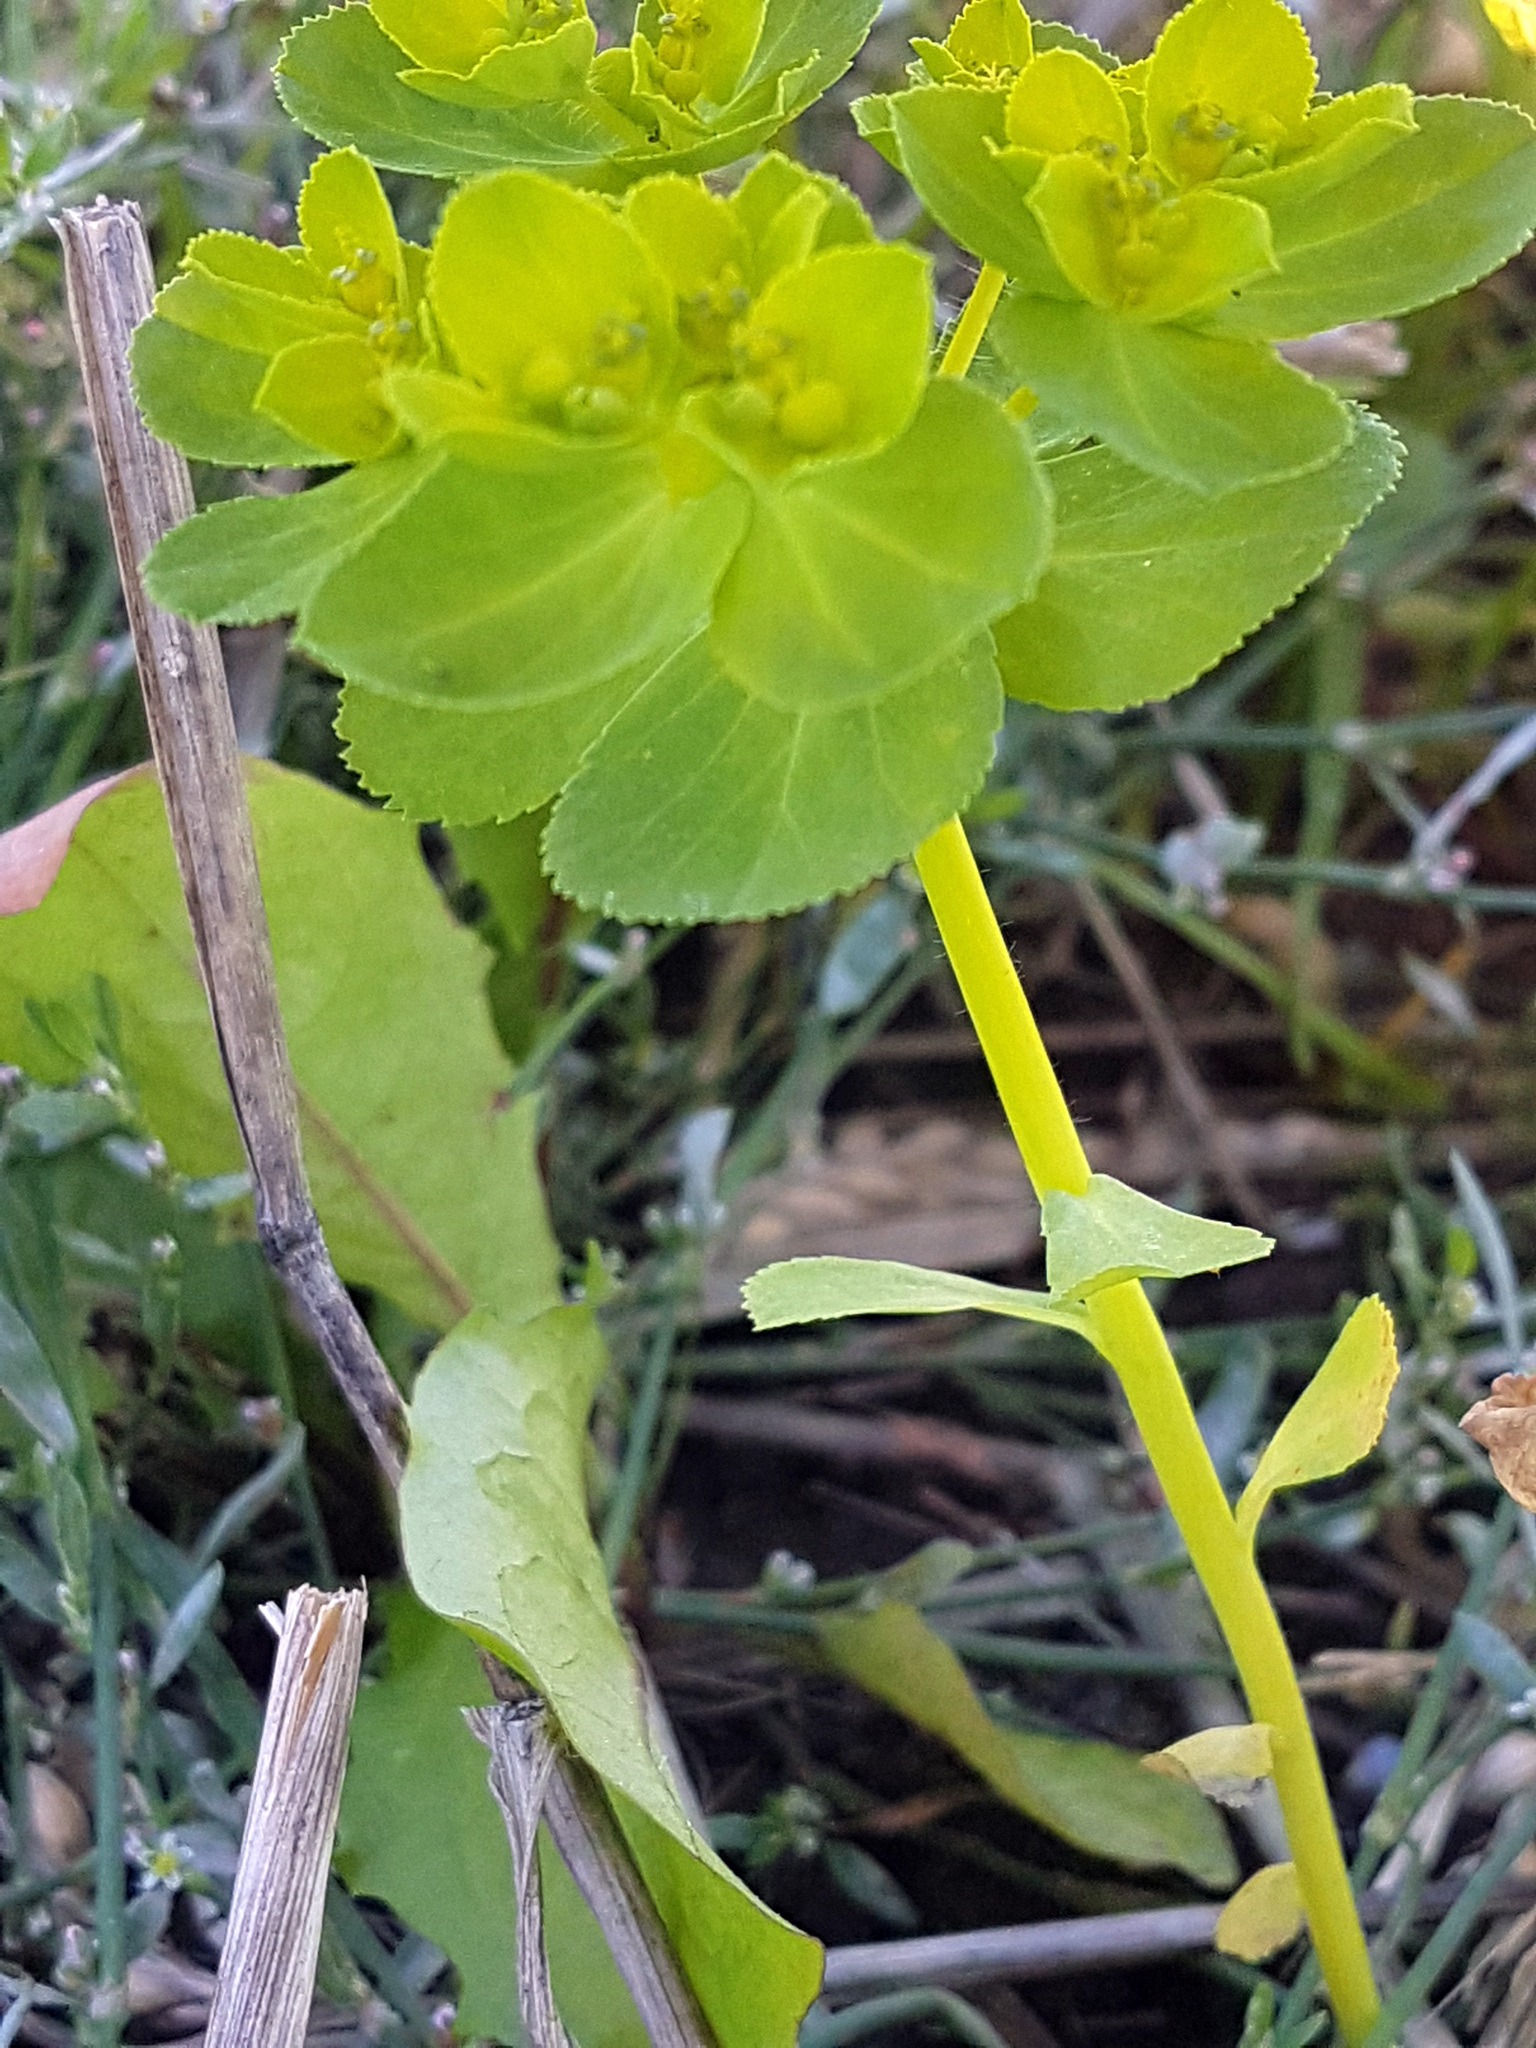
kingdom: Plantae
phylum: Tracheophyta
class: Magnoliopsida
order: Malpighiales
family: Euphorbiaceae
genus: Euphorbia
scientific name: Euphorbia helioscopia
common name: Sun spurge
